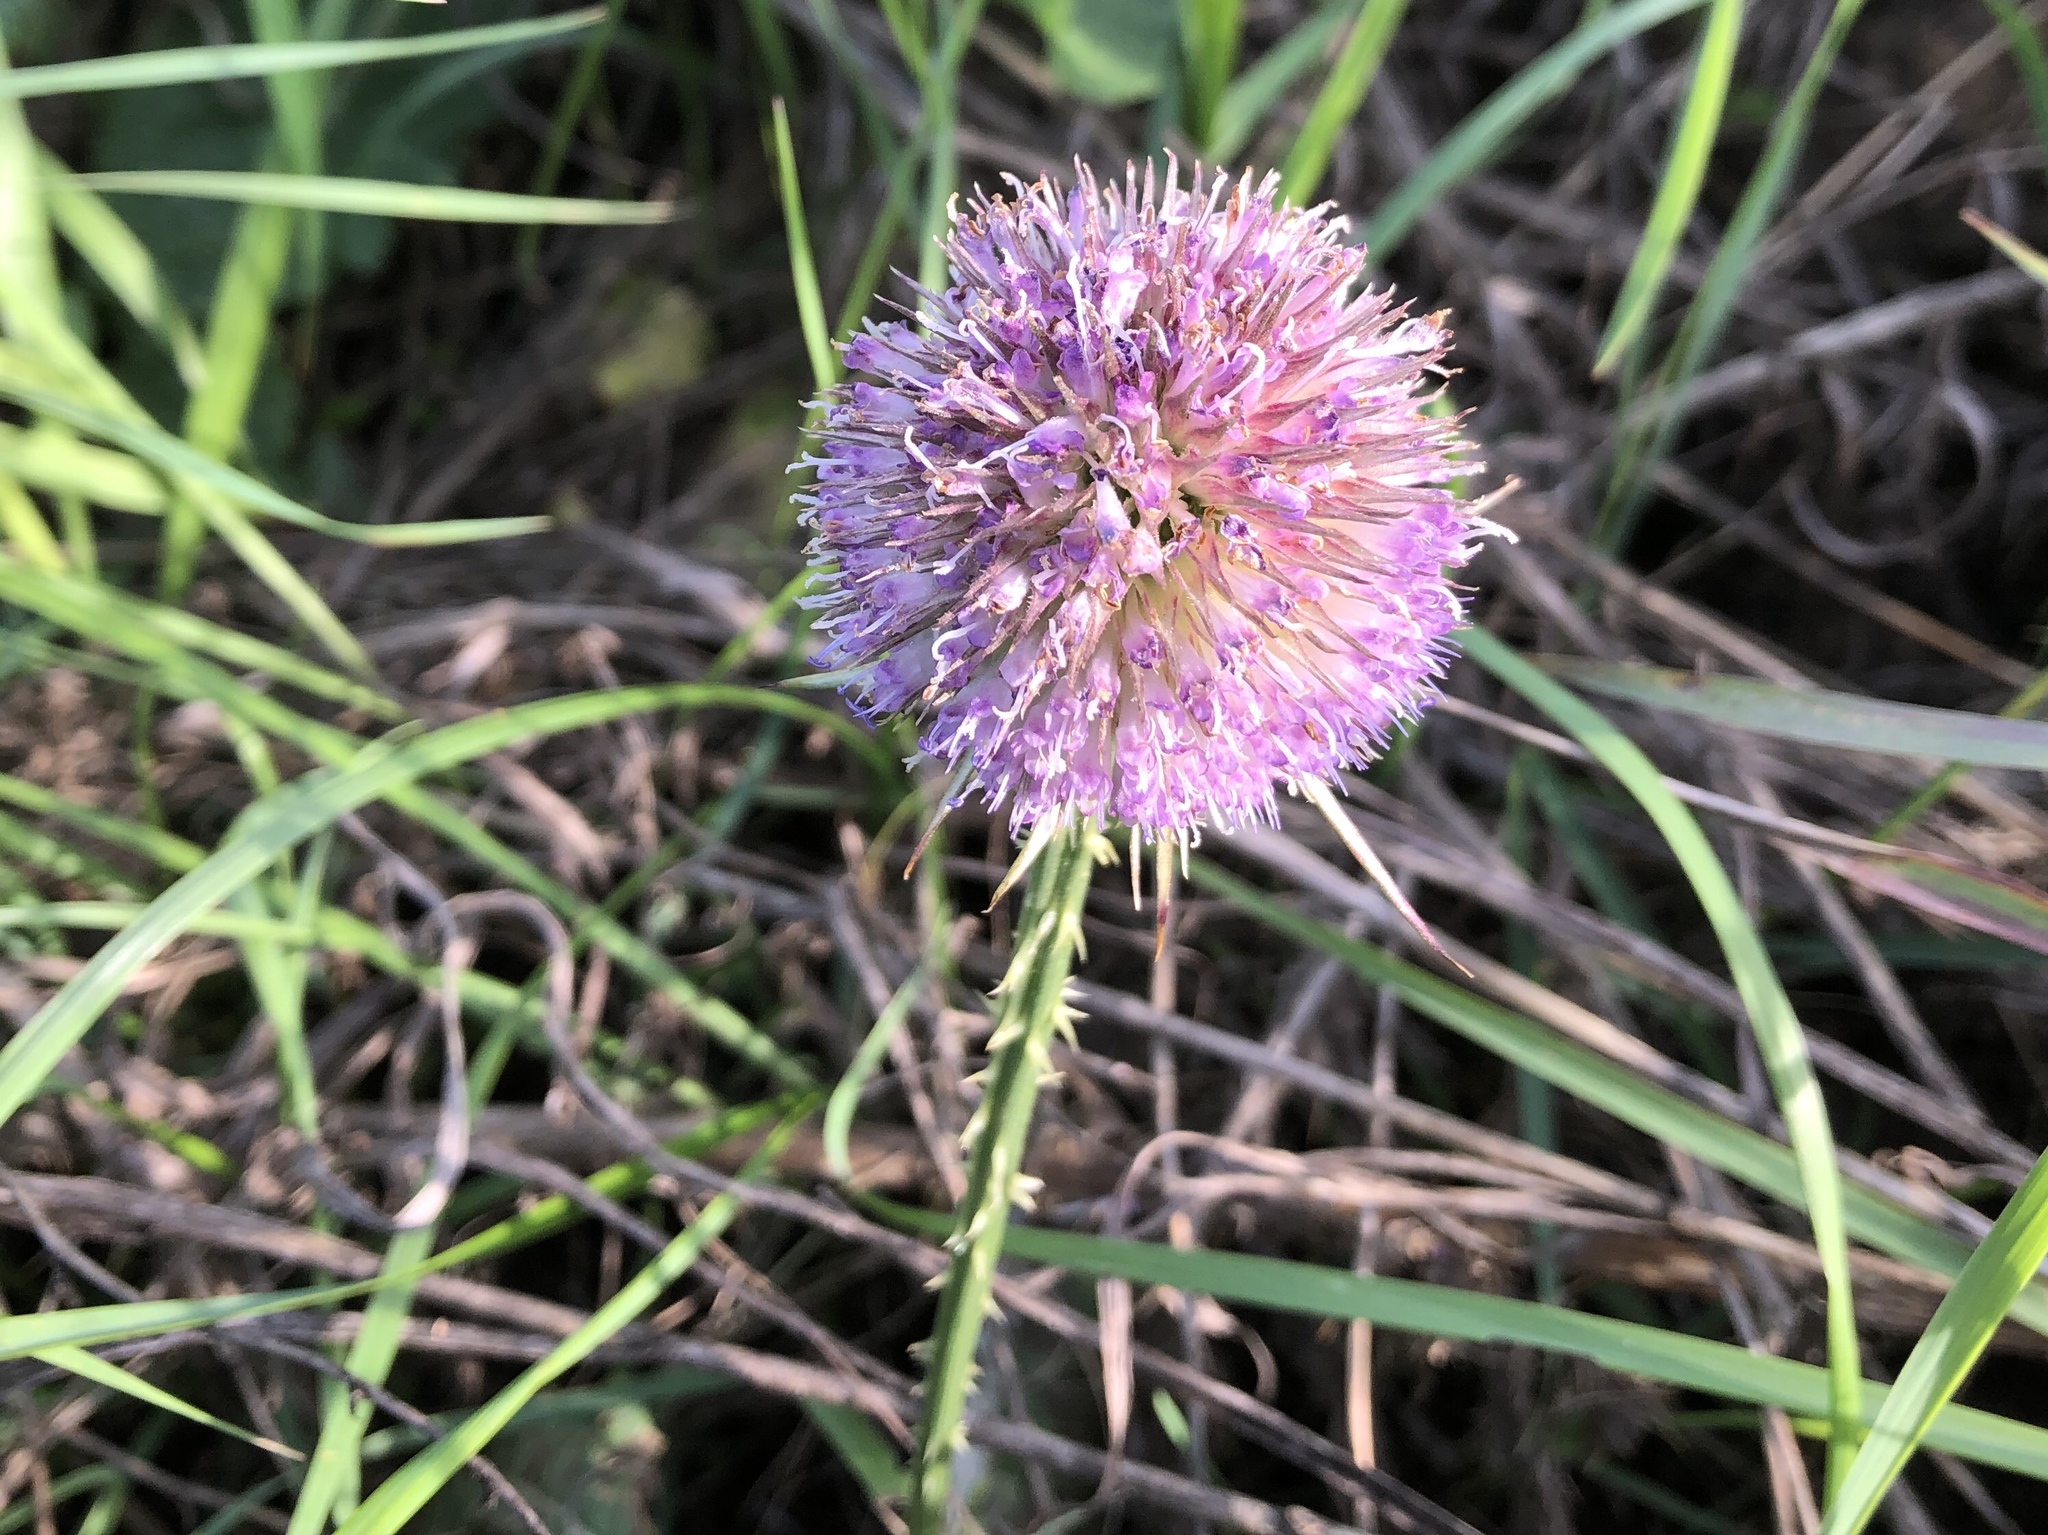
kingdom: Plantae
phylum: Tracheophyta
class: Magnoliopsida
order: Dipsacales
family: Caprifoliaceae
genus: Dipsacus
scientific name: Dipsacus fullonum
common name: Teasel
